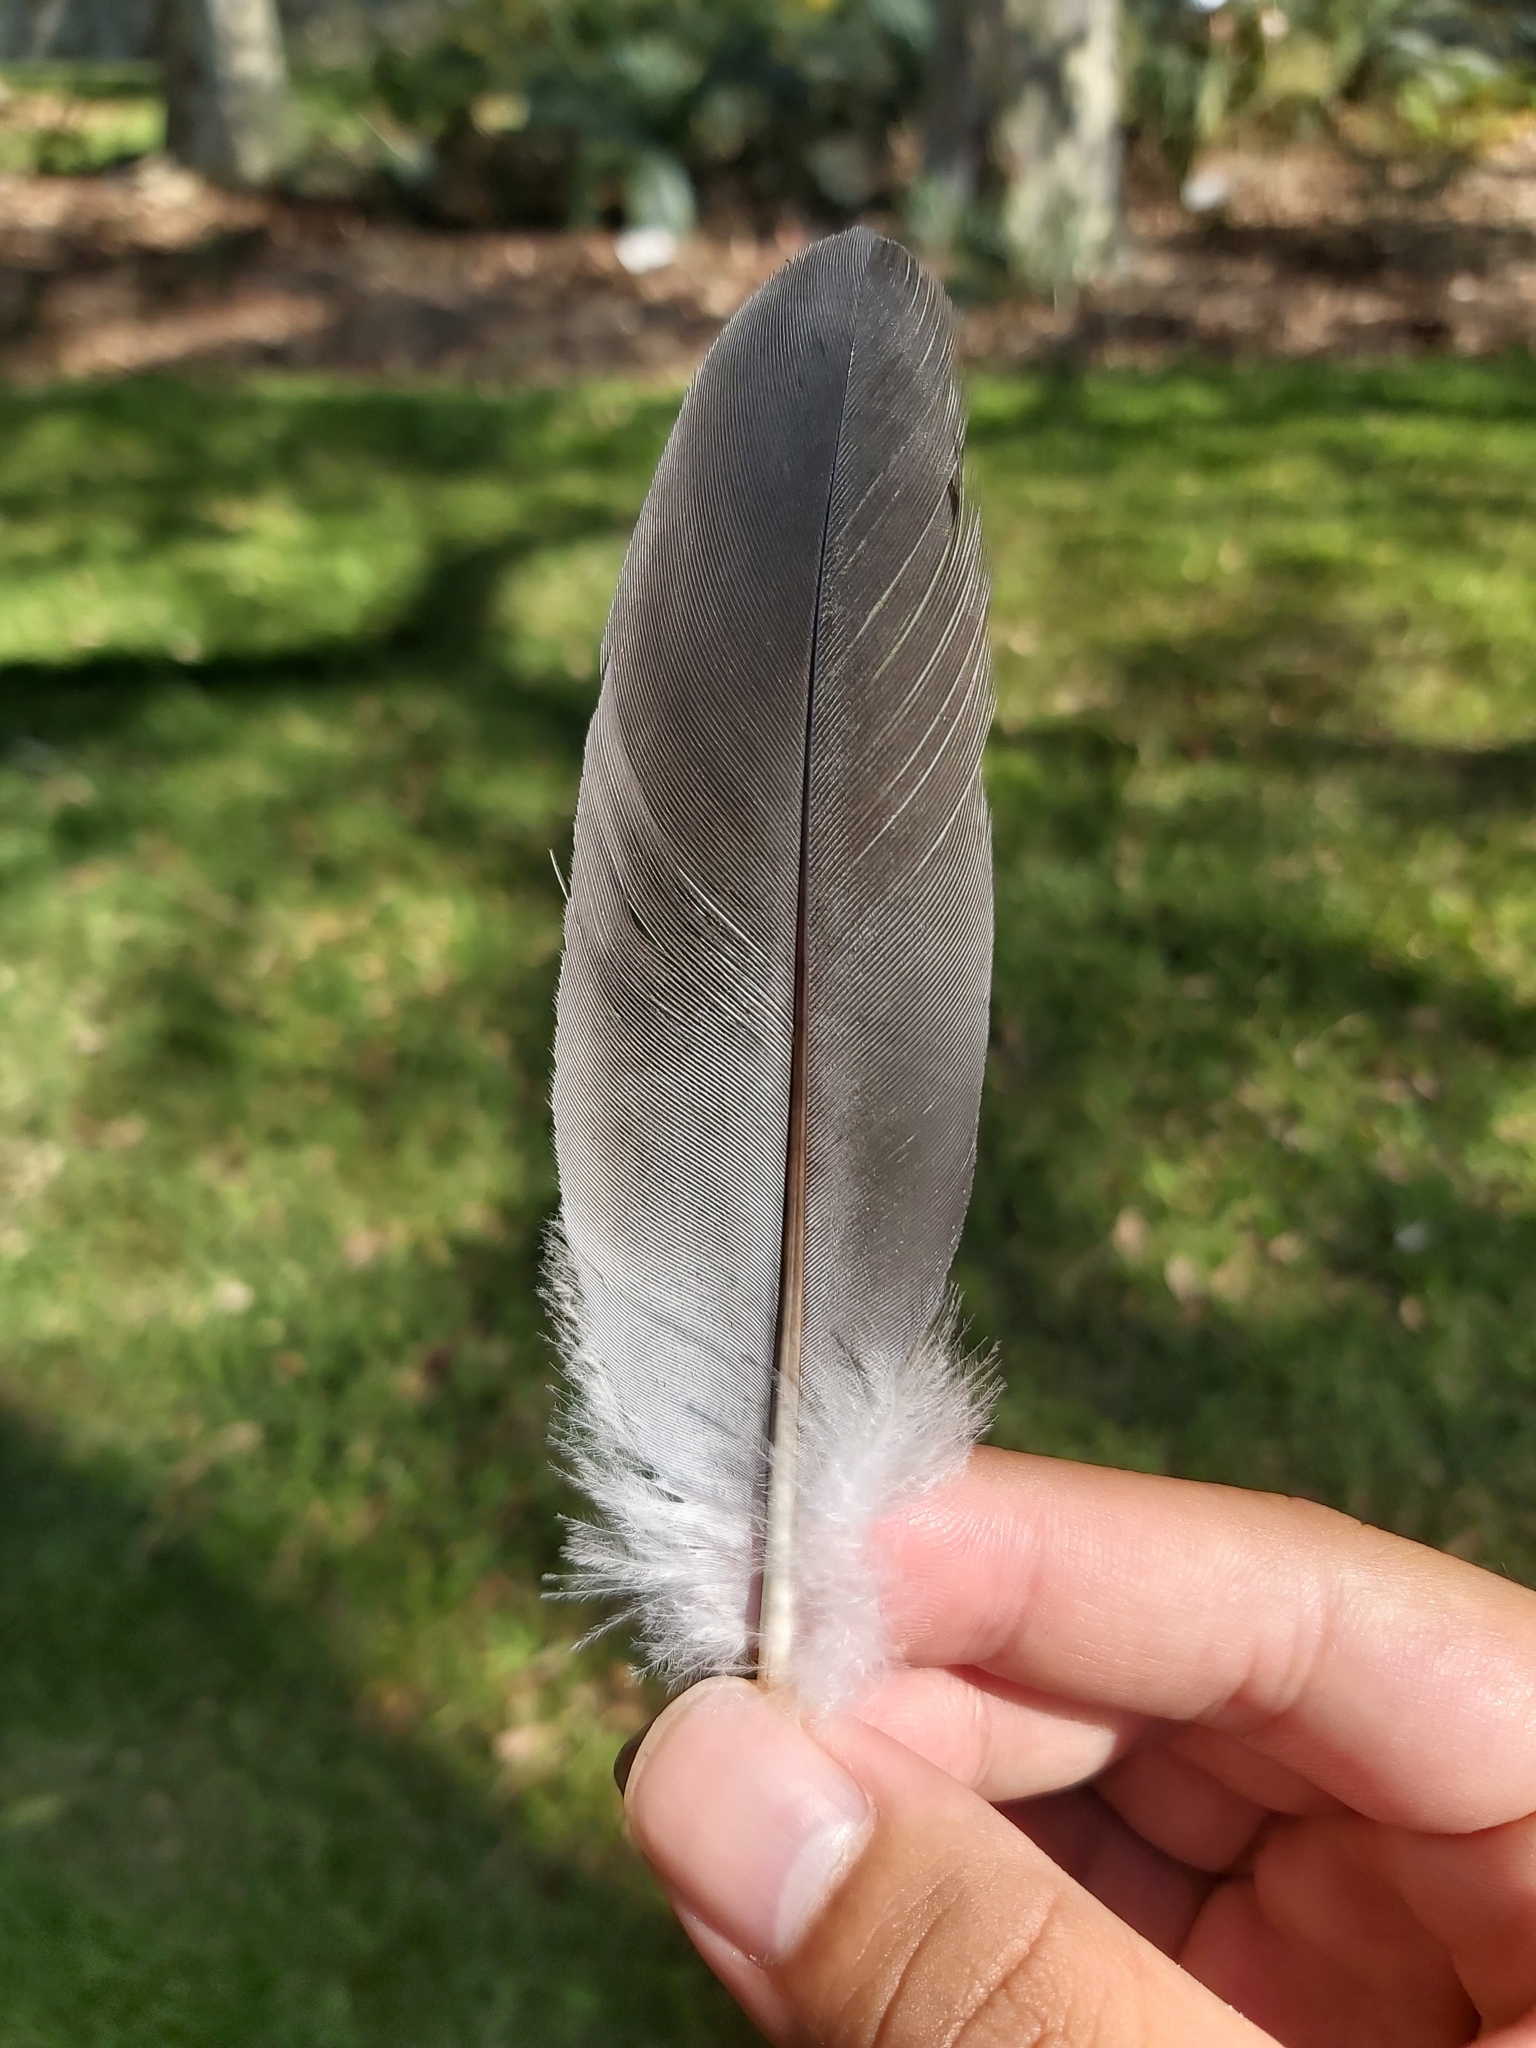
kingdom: Animalia
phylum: Chordata
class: Aves
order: Columbiformes
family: Columbidae
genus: Lopholaimus
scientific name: Lopholaimus antarcticus
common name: Topknot pigeon
